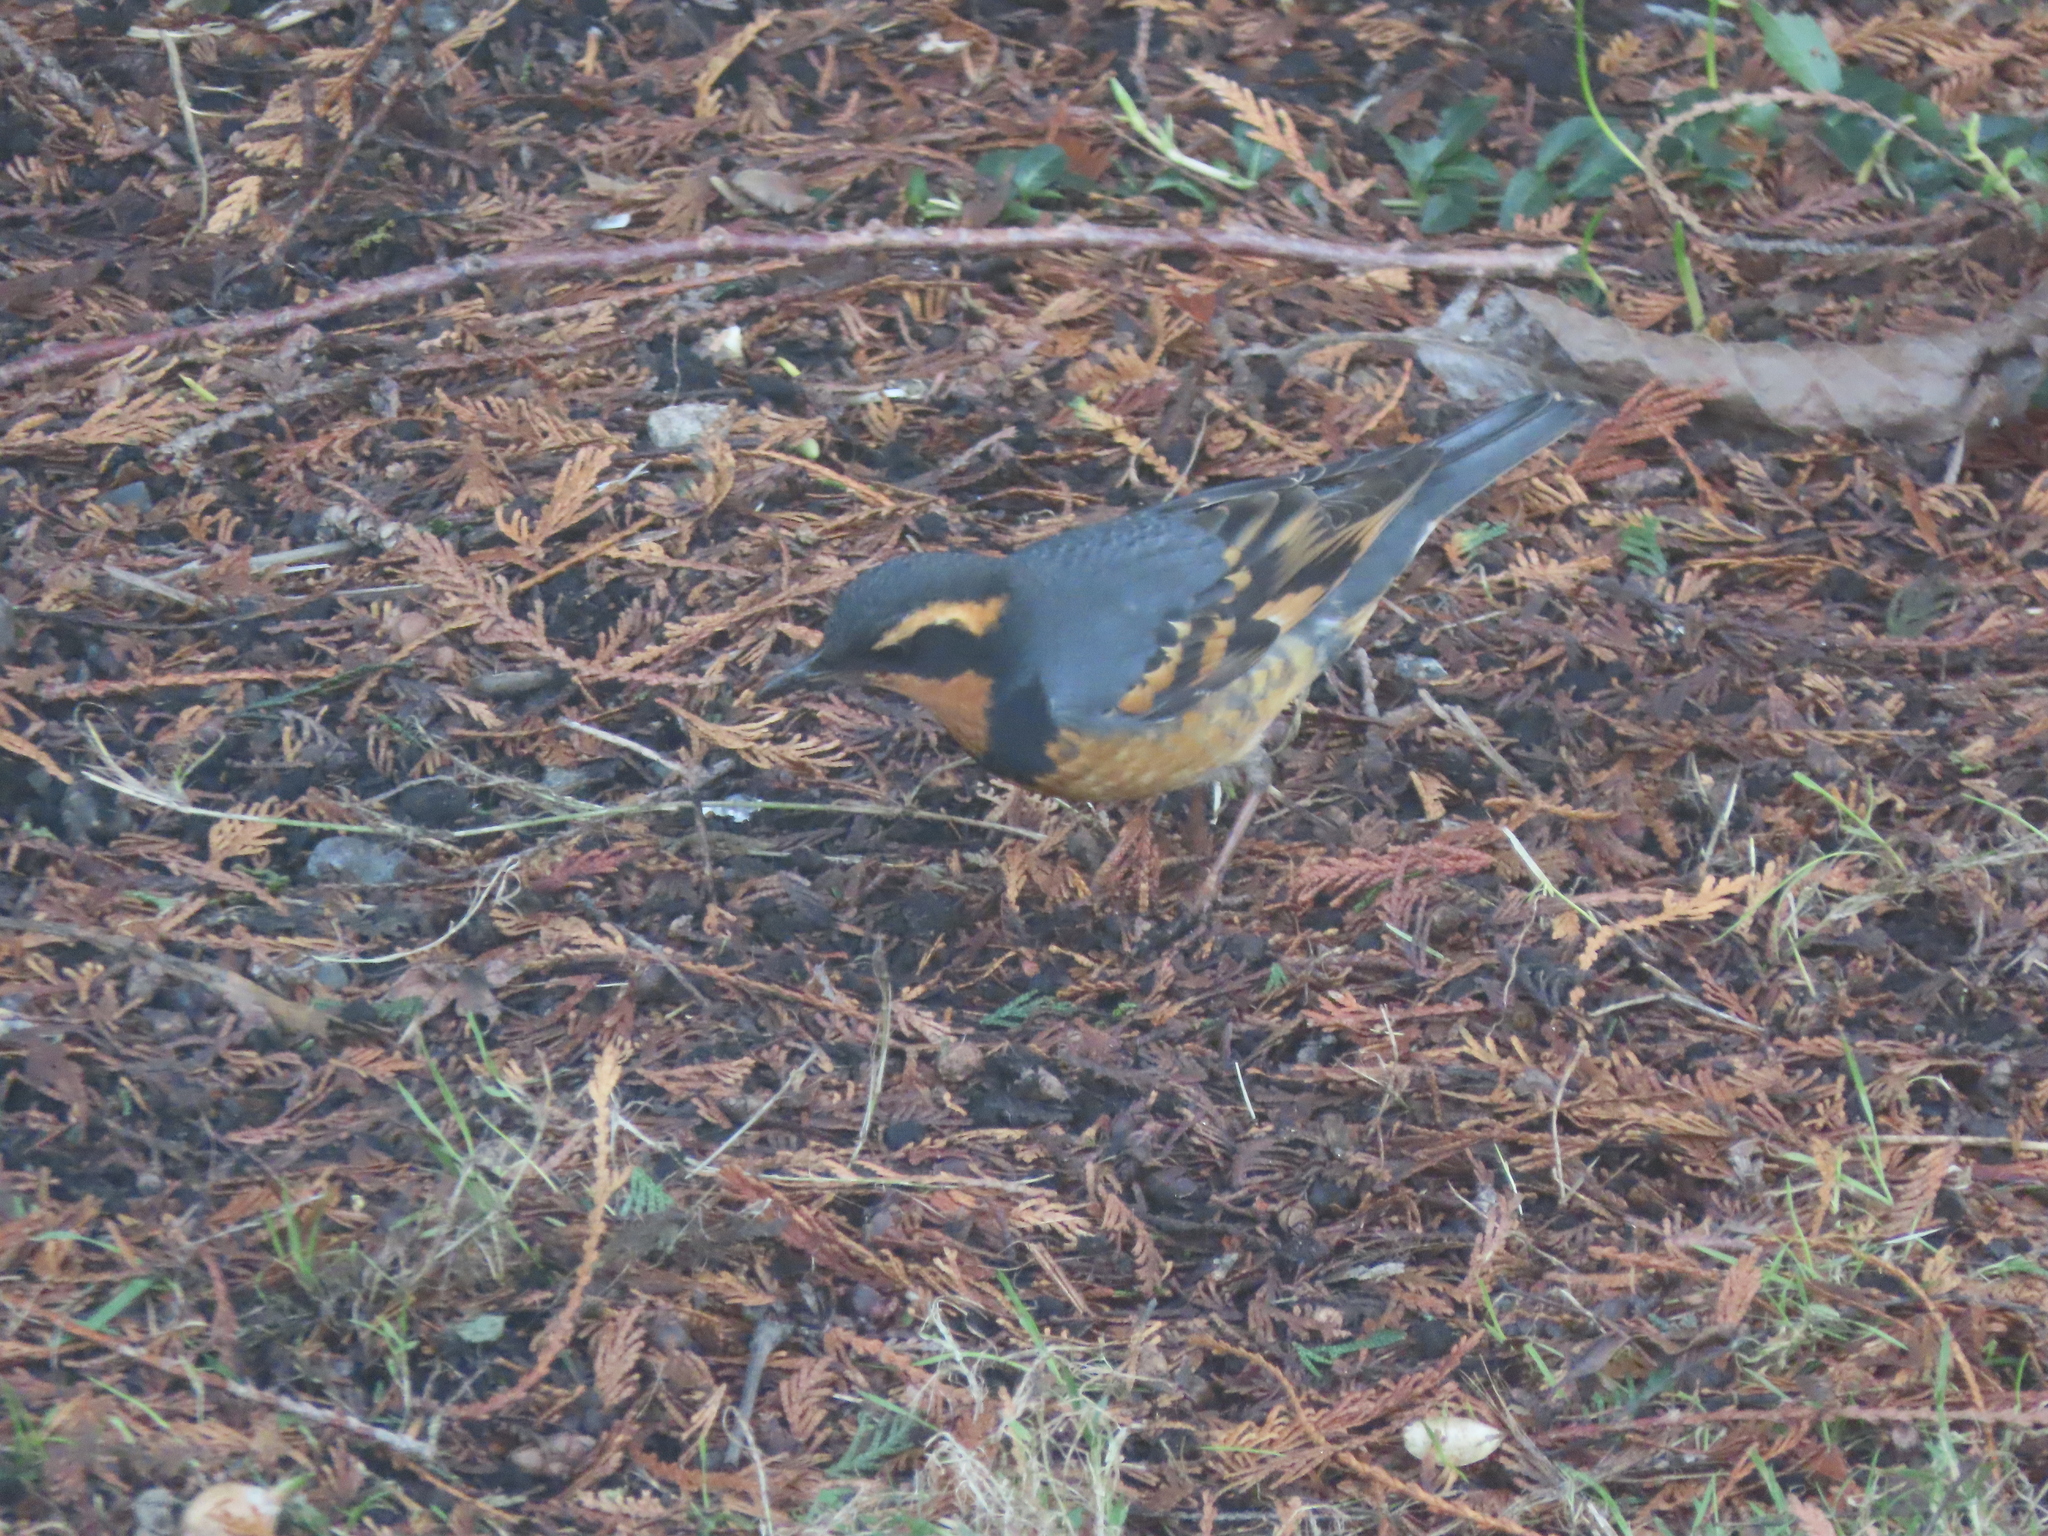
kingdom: Animalia
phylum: Chordata
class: Aves
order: Passeriformes
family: Turdidae
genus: Ixoreus
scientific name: Ixoreus naevius
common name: Varied thrush
